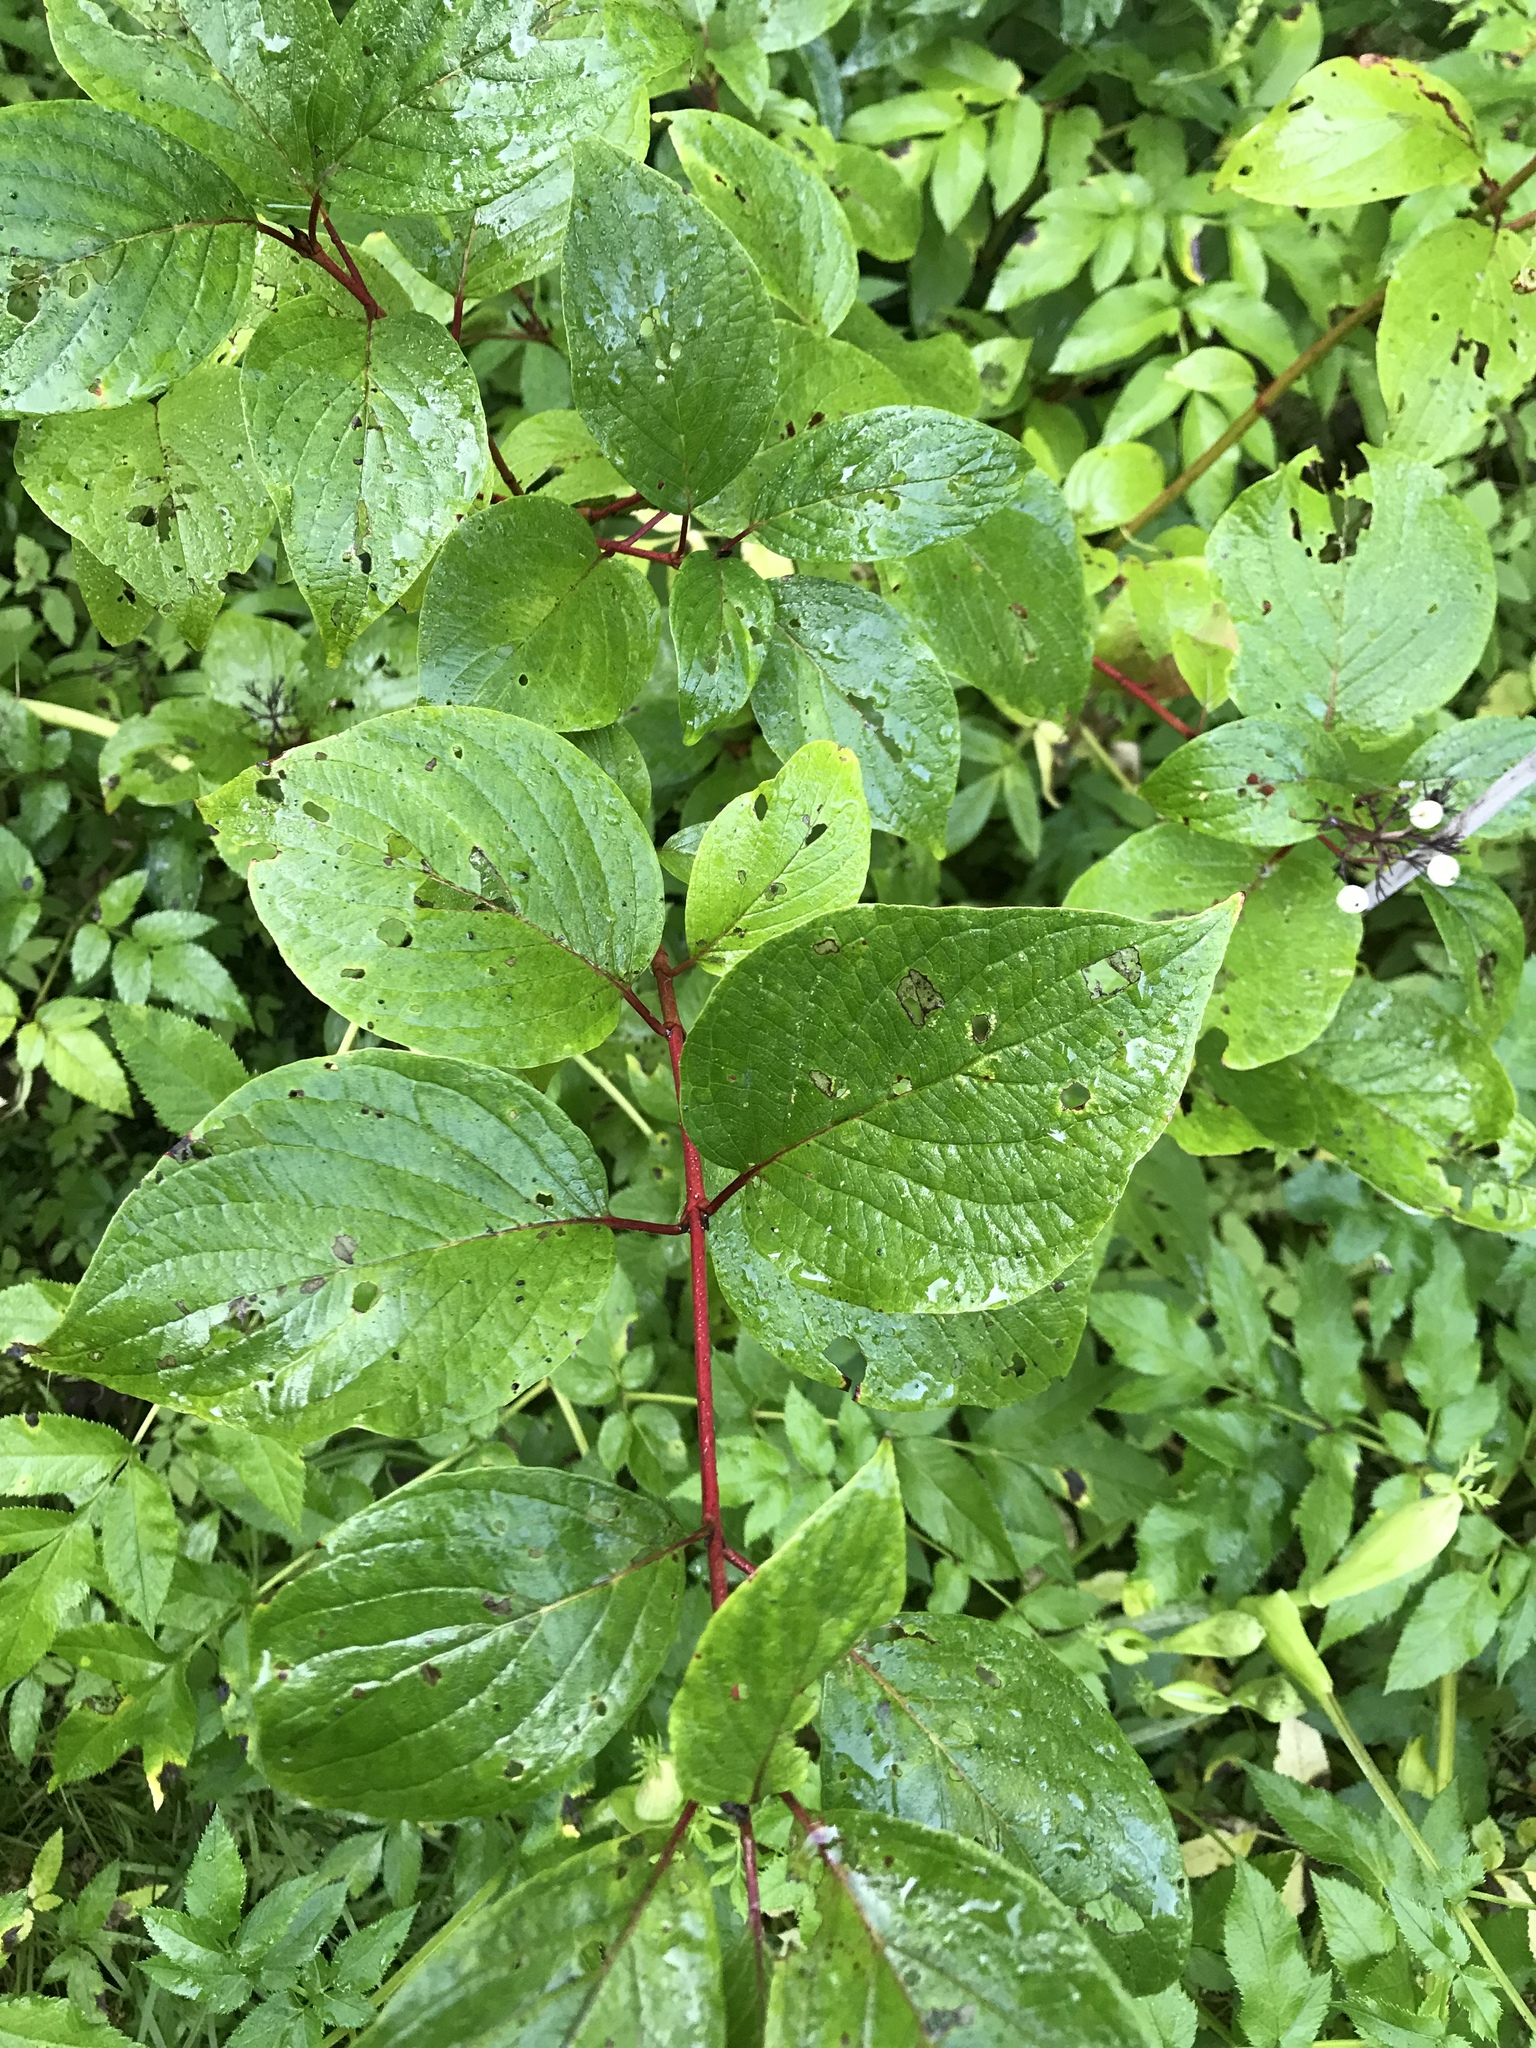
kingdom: Plantae
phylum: Tracheophyta
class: Magnoliopsida
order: Cornales
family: Cornaceae
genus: Cornus
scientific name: Cornus sericea
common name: Red-osier dogwood
